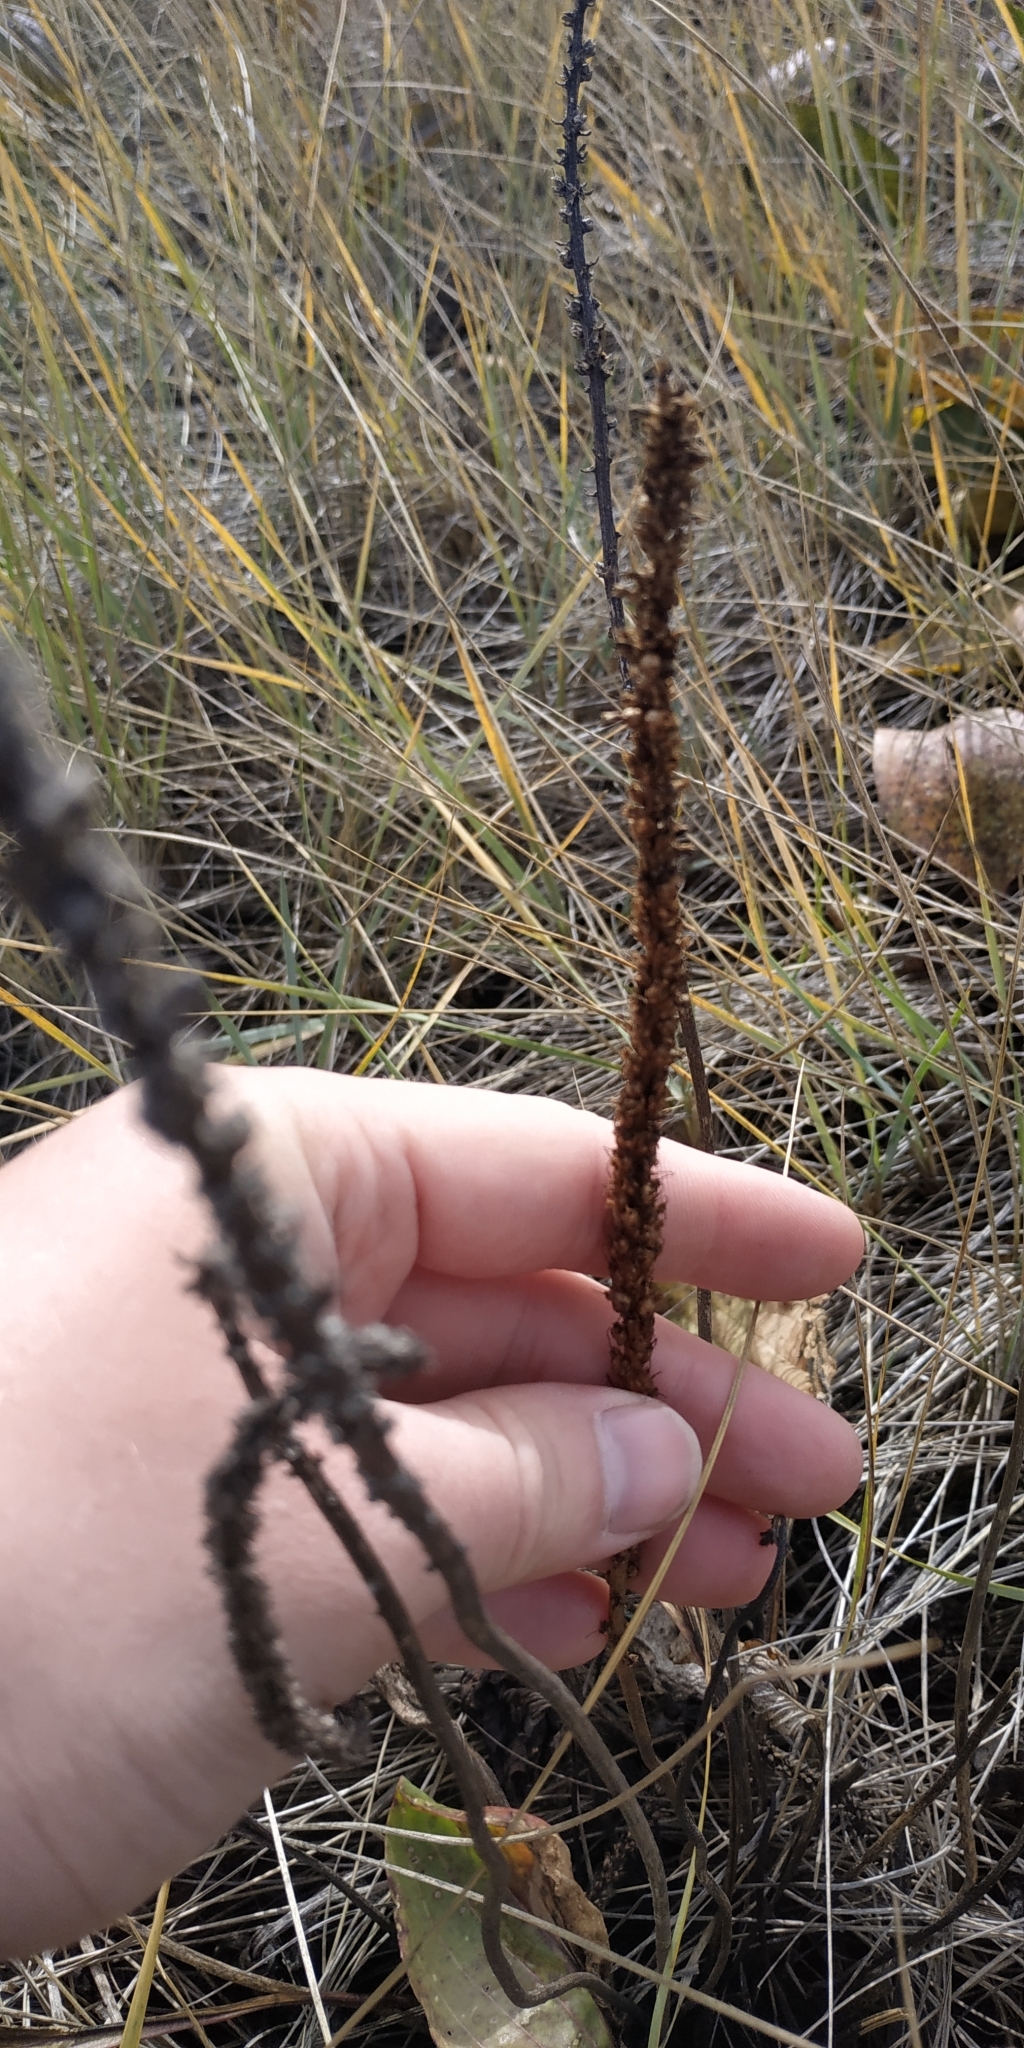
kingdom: Plantae
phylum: Tracheophyta
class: Magnoliopsida
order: Lamiales
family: Plantaginaceae
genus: Plantago
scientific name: Plantago cornuti
